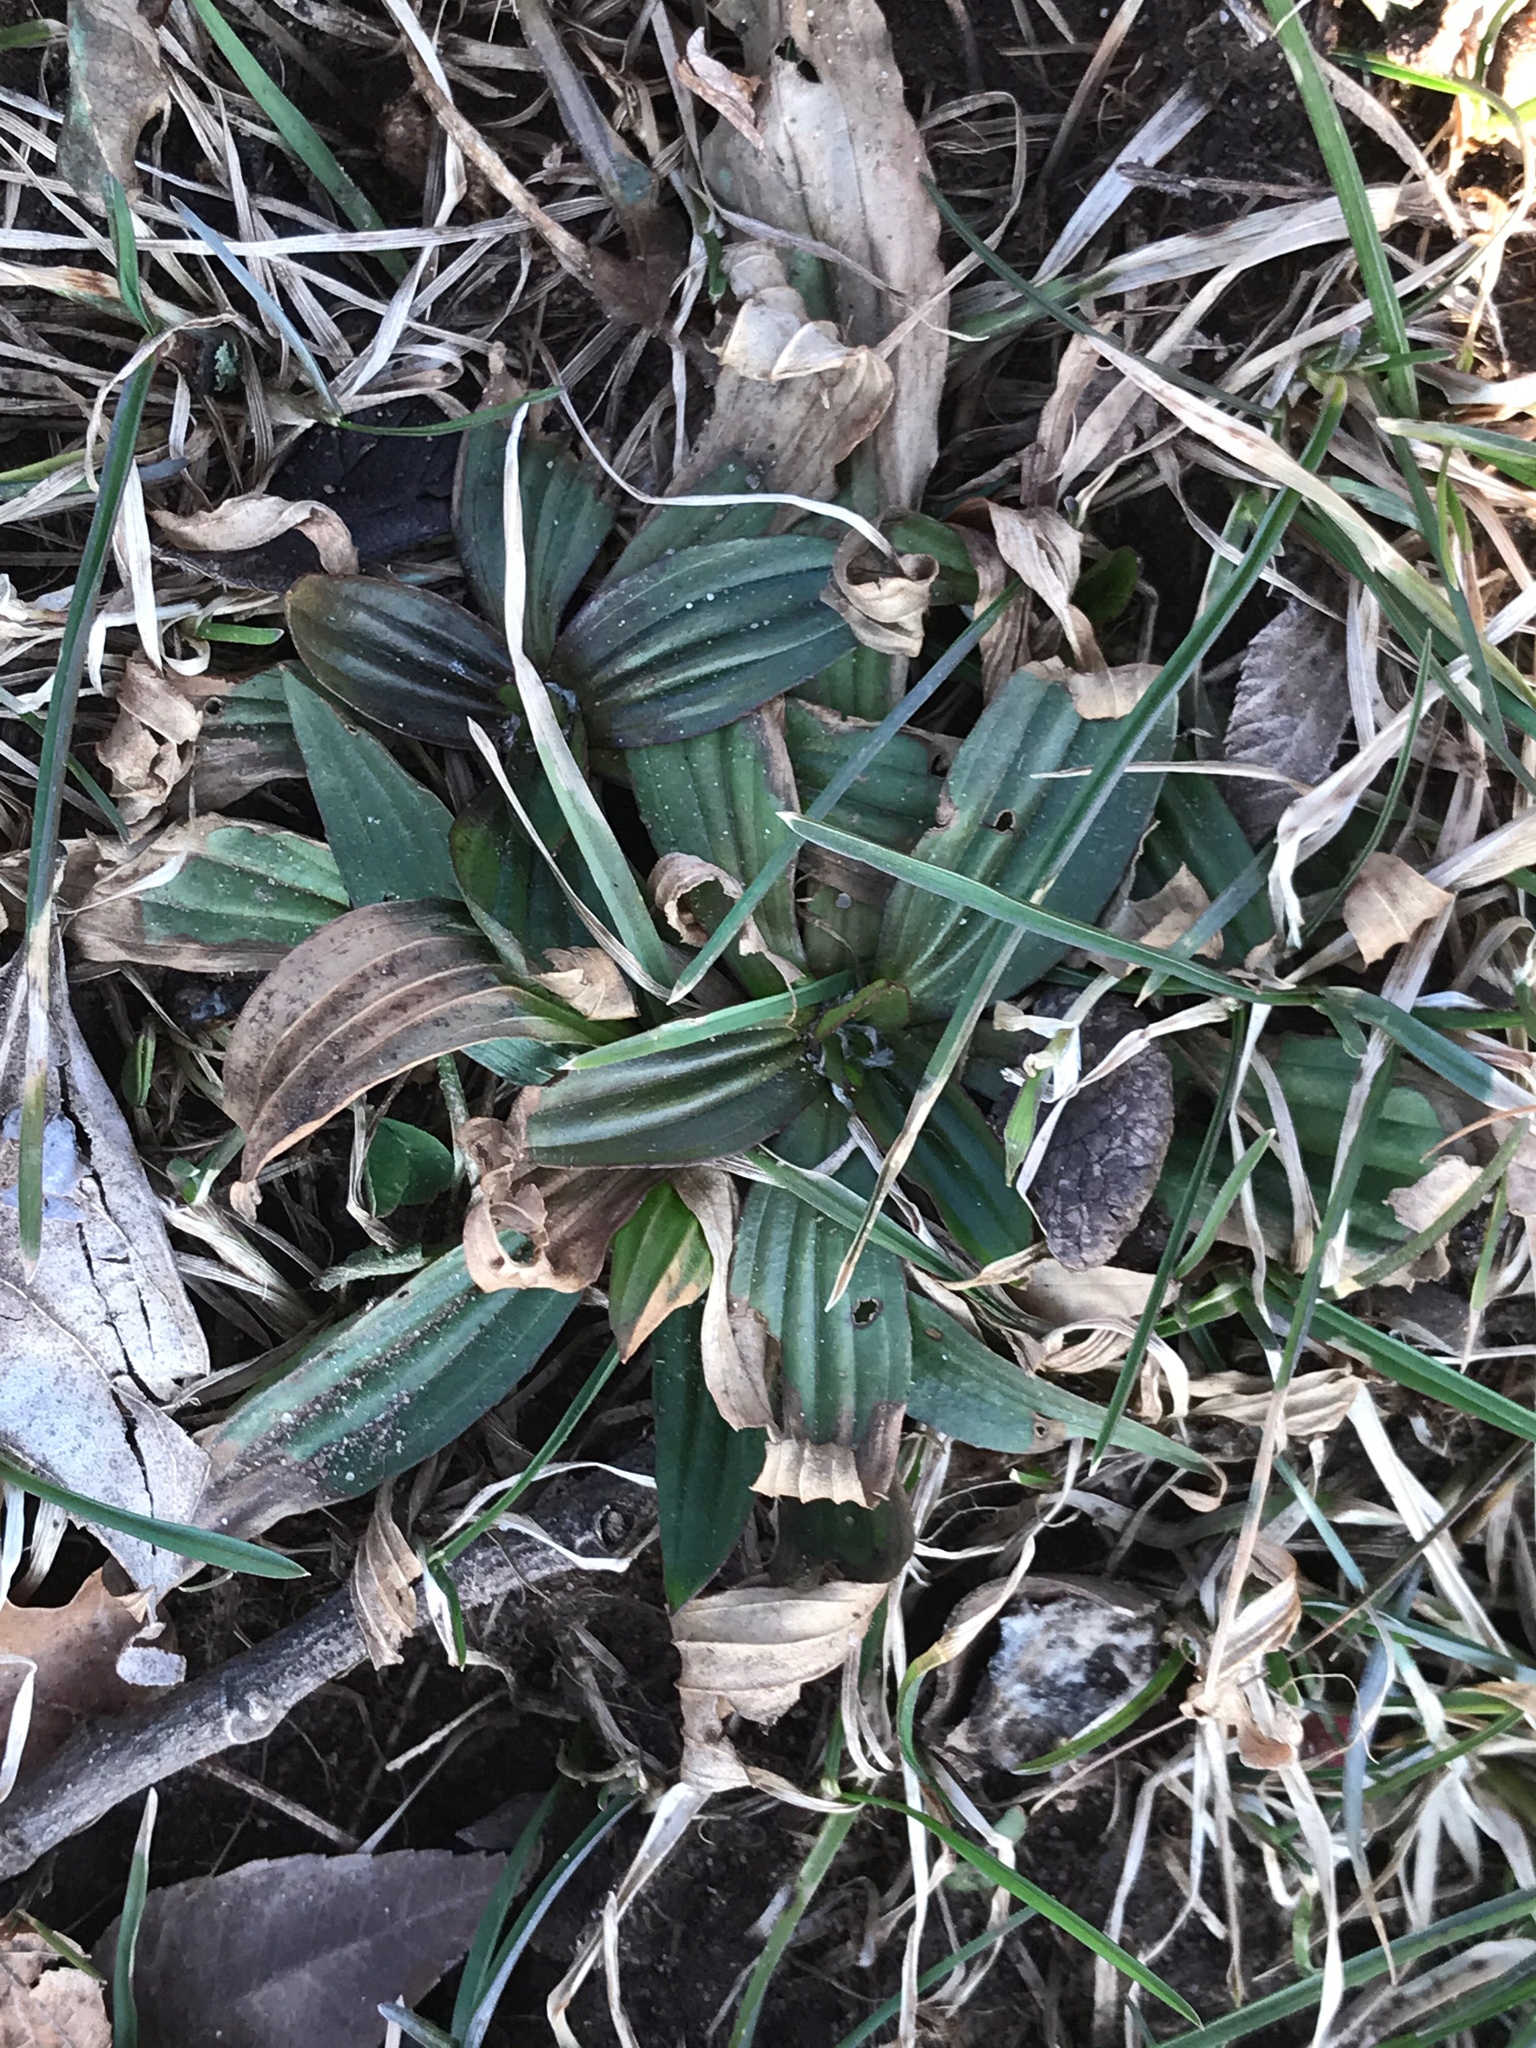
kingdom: Plantae
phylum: Tracheophyta
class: Magnoliopsida
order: Lamiales
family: Plantaginaceae
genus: Plantago
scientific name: Plantago lanceolata
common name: Ribwort plantain
